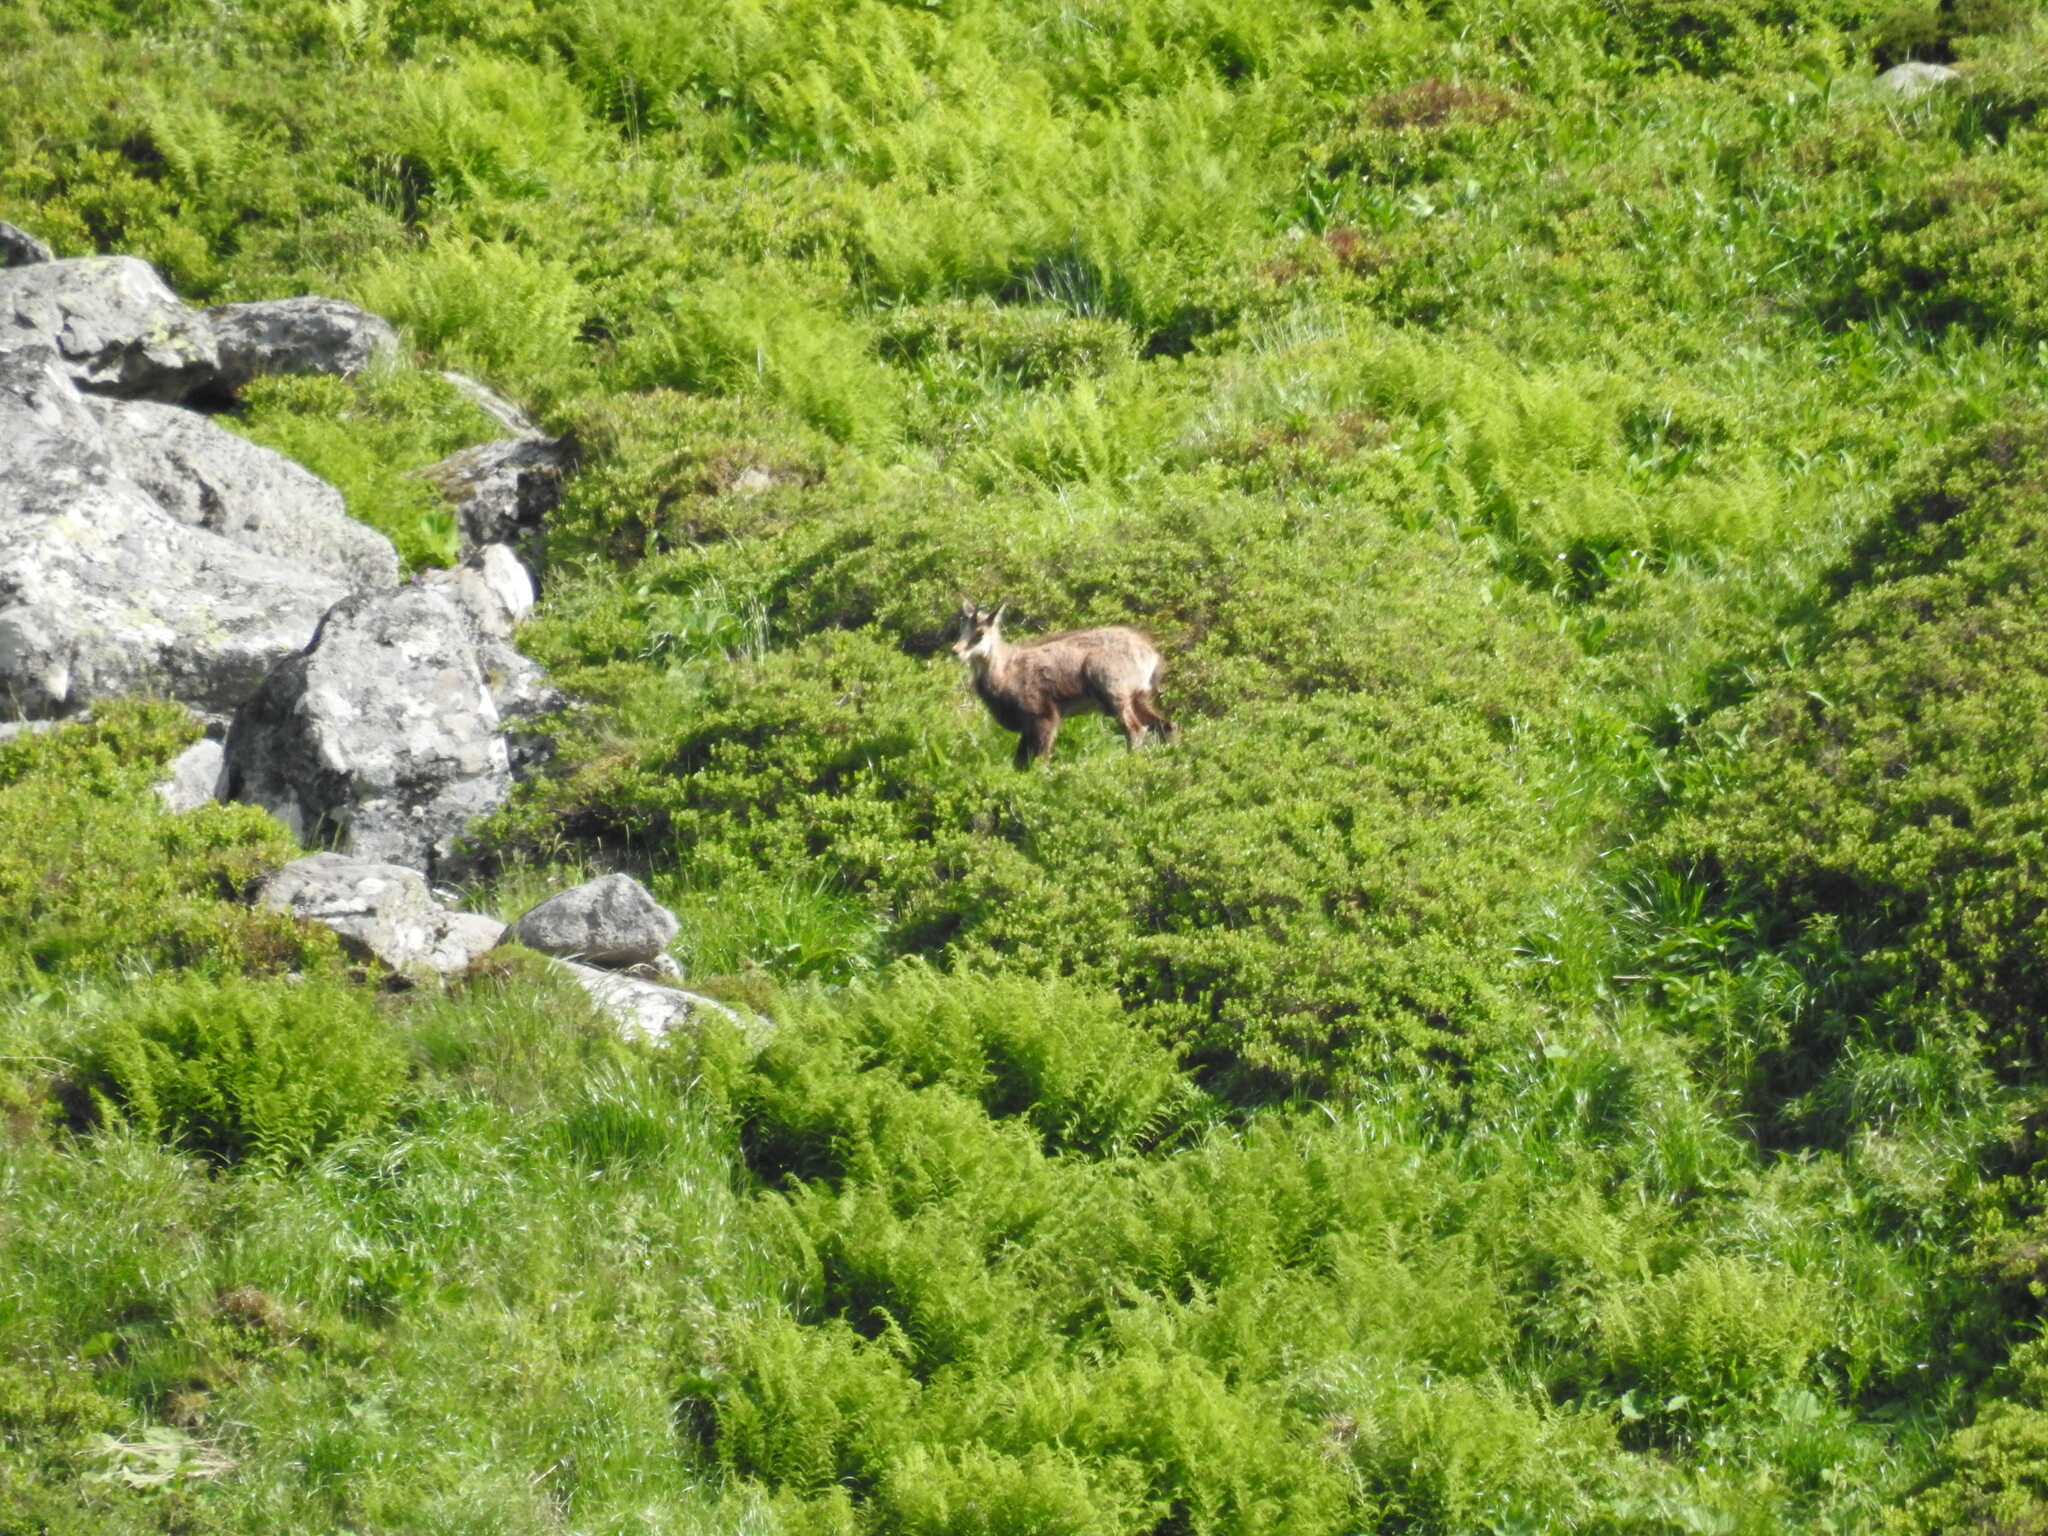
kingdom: Animalia
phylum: Chordata
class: Mammalia
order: Artiodactyla
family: Bovidae
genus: Rupicapra
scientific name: Rupicapra rupicapra
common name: Chamois
